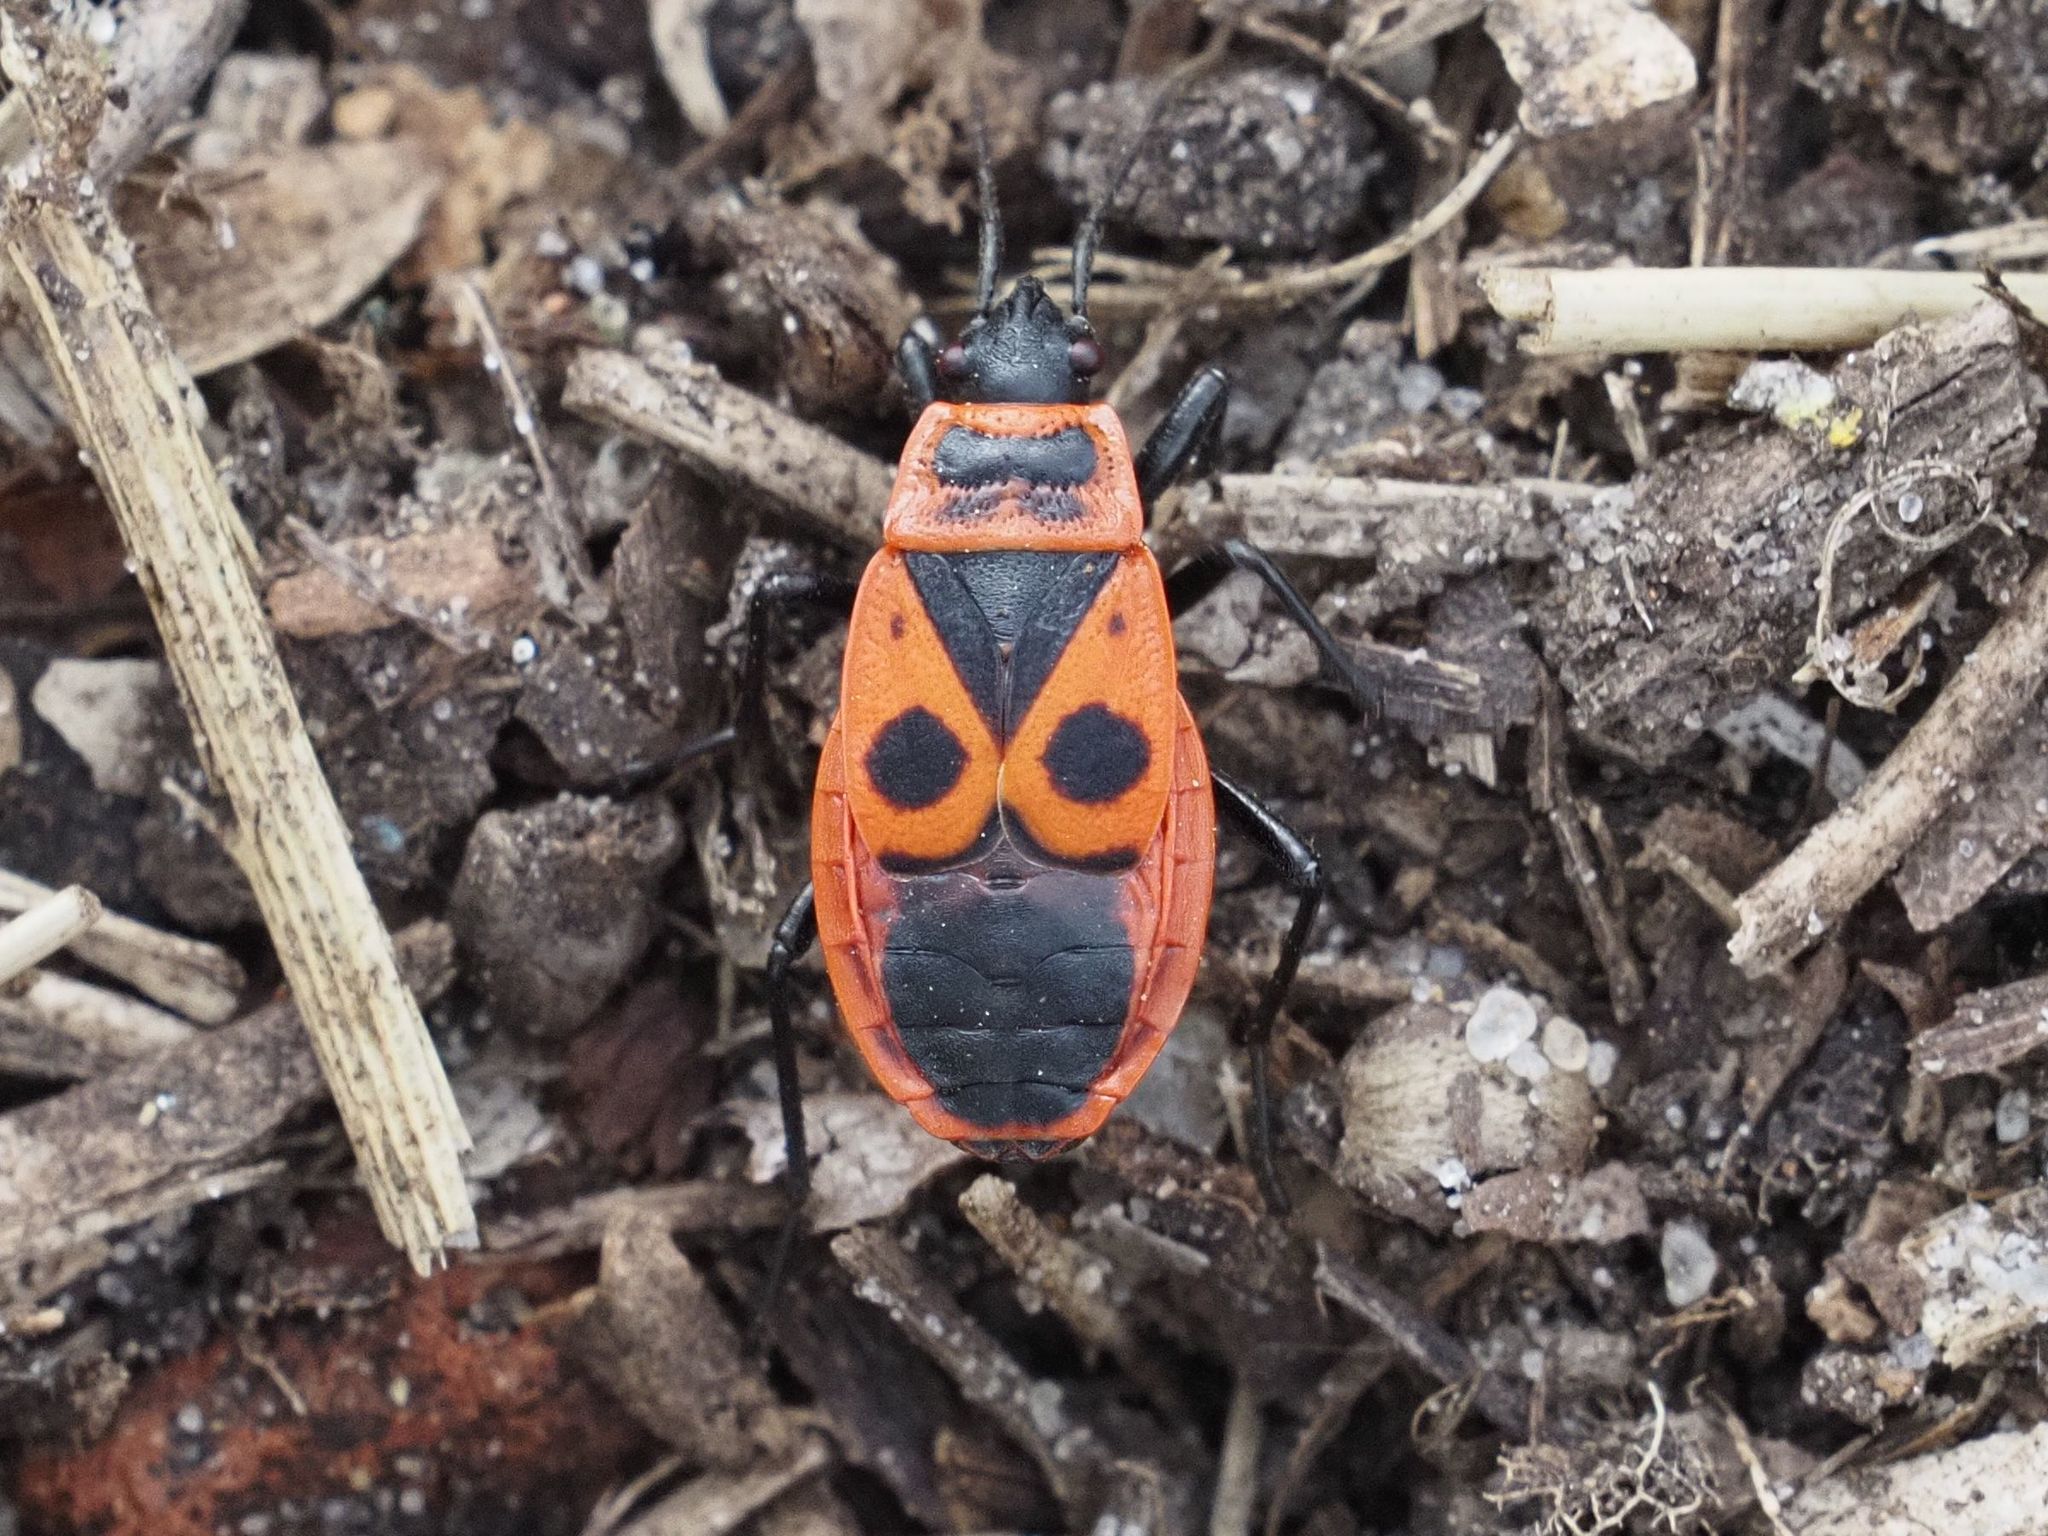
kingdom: Animalia
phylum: Arthropoda
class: Insecta
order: Hemiptera
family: Pyrrhocoridae
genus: Pyrrhocoris
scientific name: Pyrrhocoris apterus
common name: Firebug
